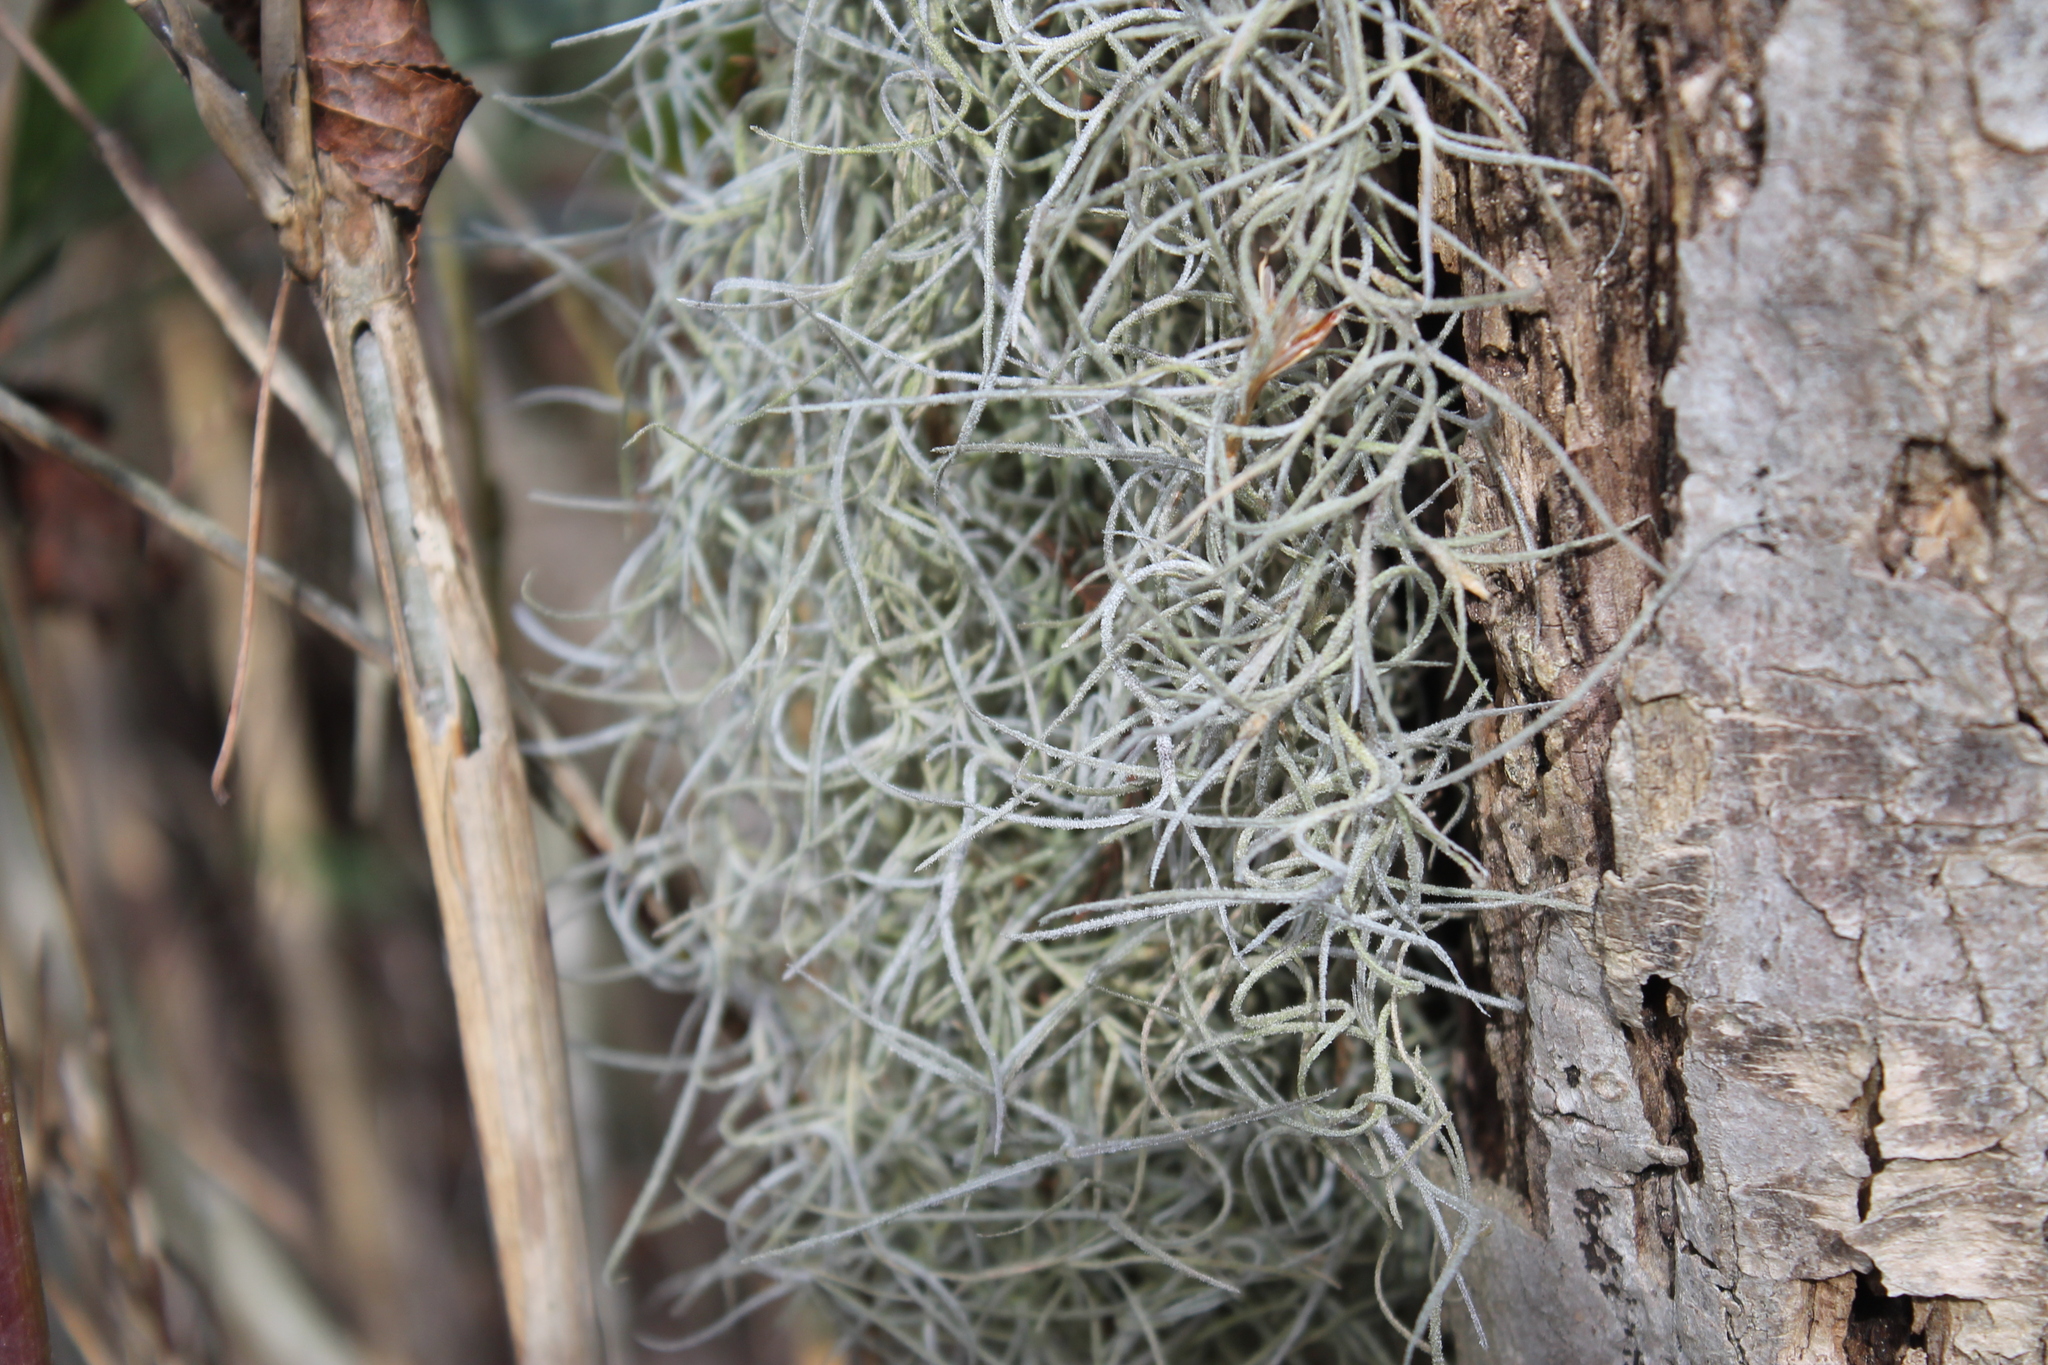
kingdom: Plantae
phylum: Tracheophyta
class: Liliopsida
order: Poales
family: Bromeliaceae
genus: Tillandsia
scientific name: Tillandsia usneoides
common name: Spanish moss
